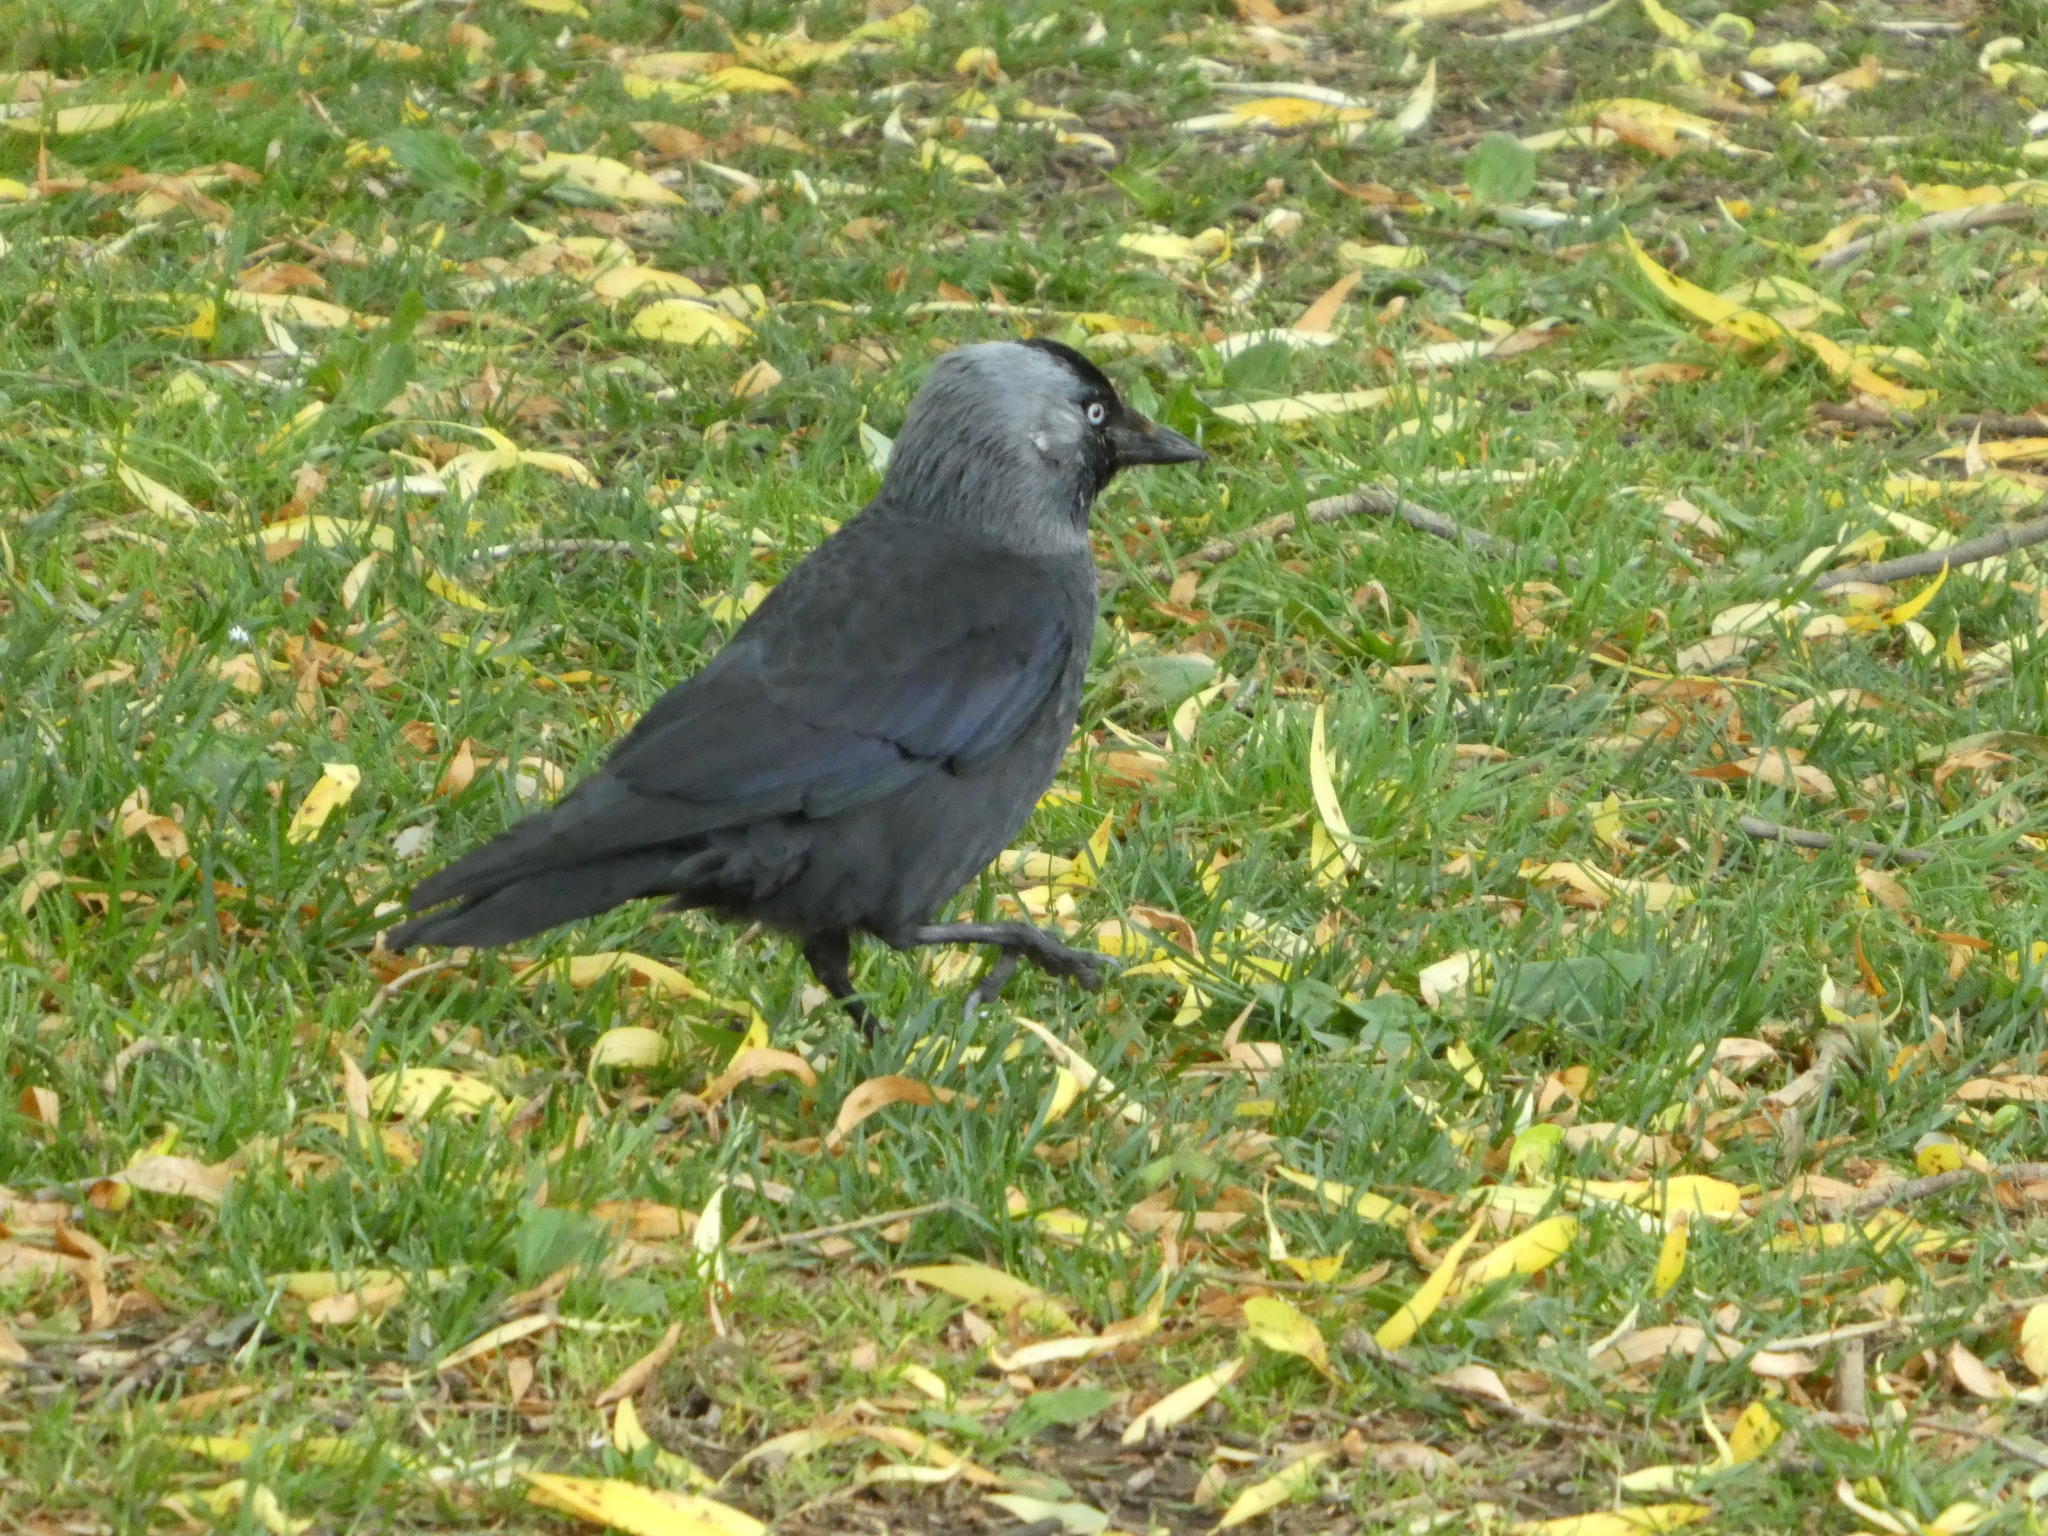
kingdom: Animalia
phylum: Chordata
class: Aves
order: Passeriformes
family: Corvidae
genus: Coloeus
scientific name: Coloeus monedula
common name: Western jackdaw
